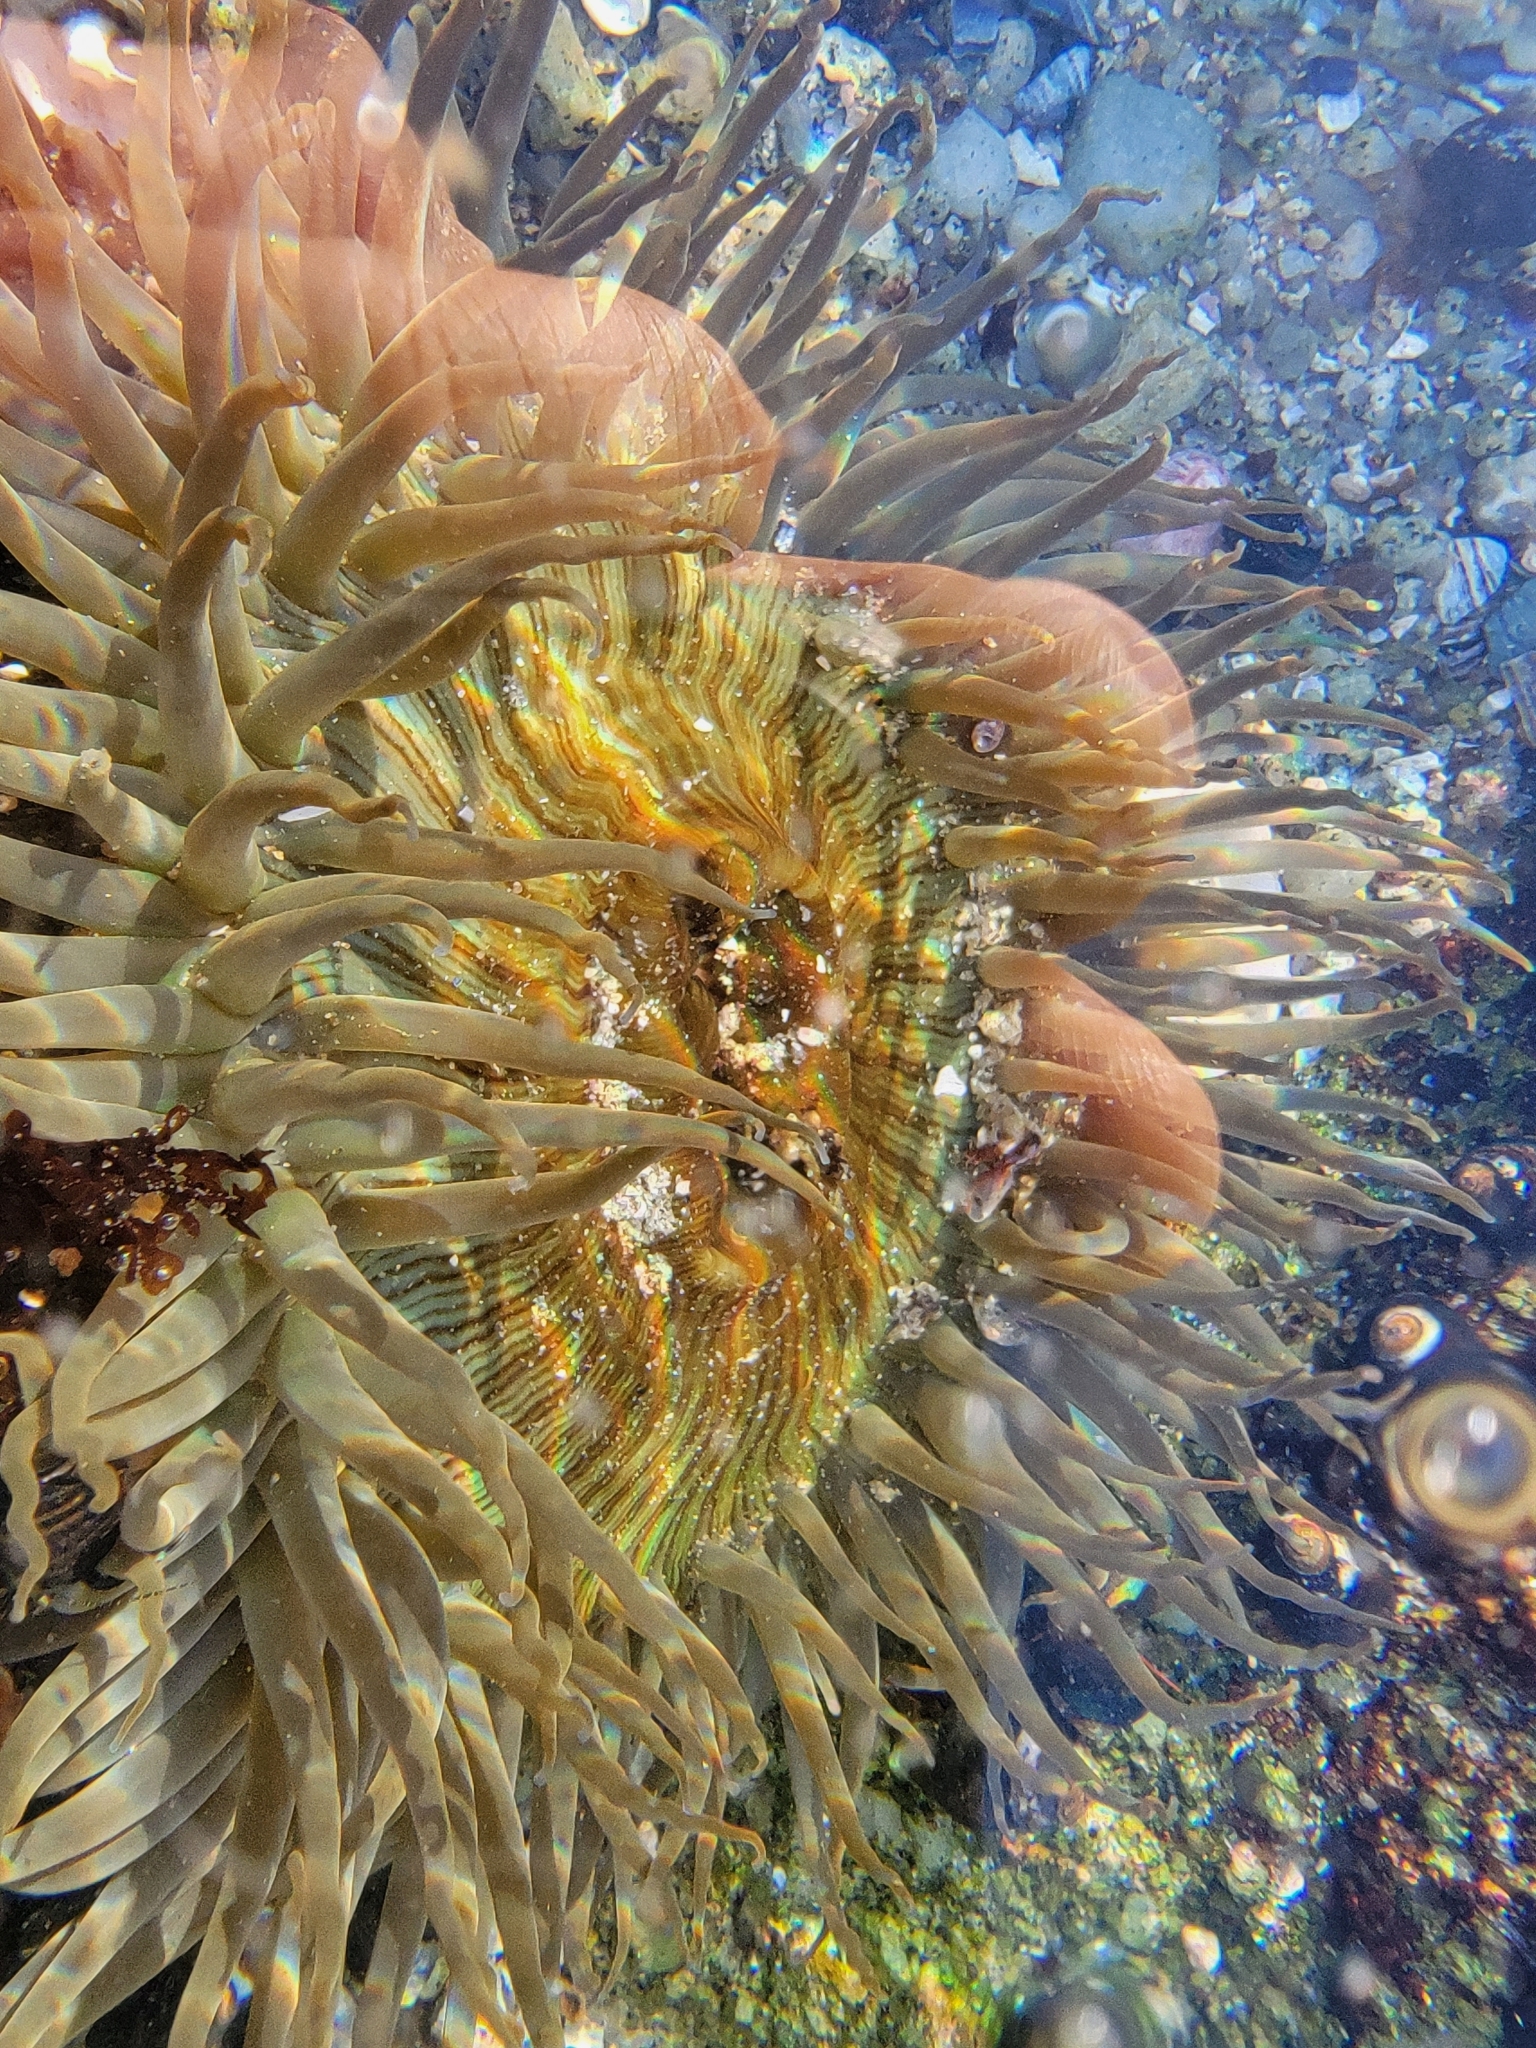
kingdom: Animalia
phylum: Cnidaria
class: Anthozoa
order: Actiniaria
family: Actiniidae
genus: Anthopleura
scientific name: Anthopleura sola
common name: Sun anemone
